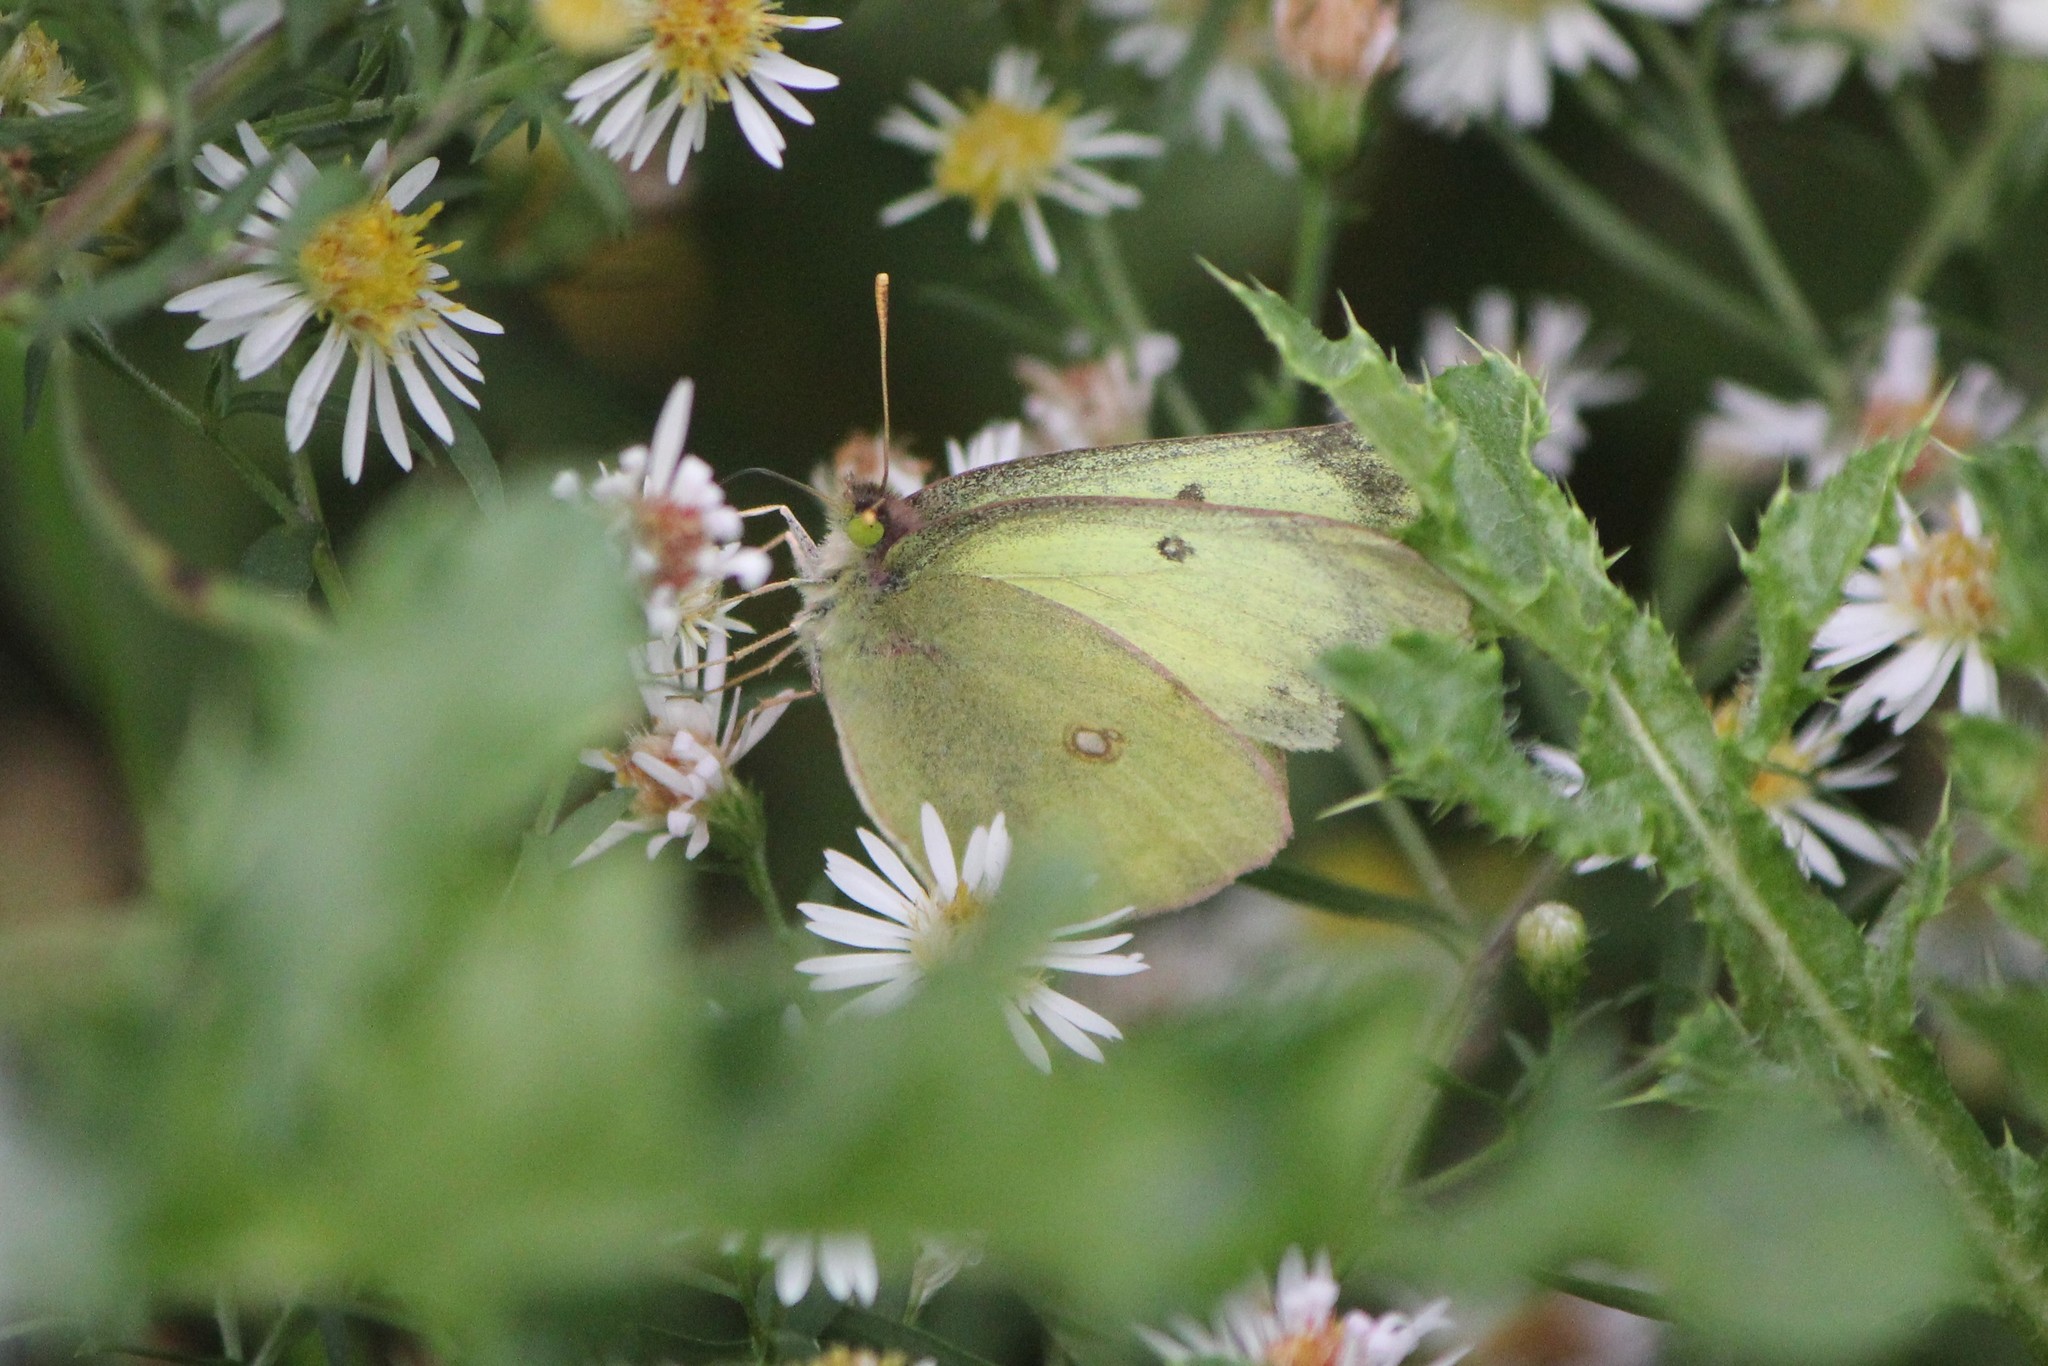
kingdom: Animalia
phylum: Arthropoda
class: Insecta
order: Lepidoptera
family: Pieridae
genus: Colias
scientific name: Colias philodice
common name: Clouded sulphur
